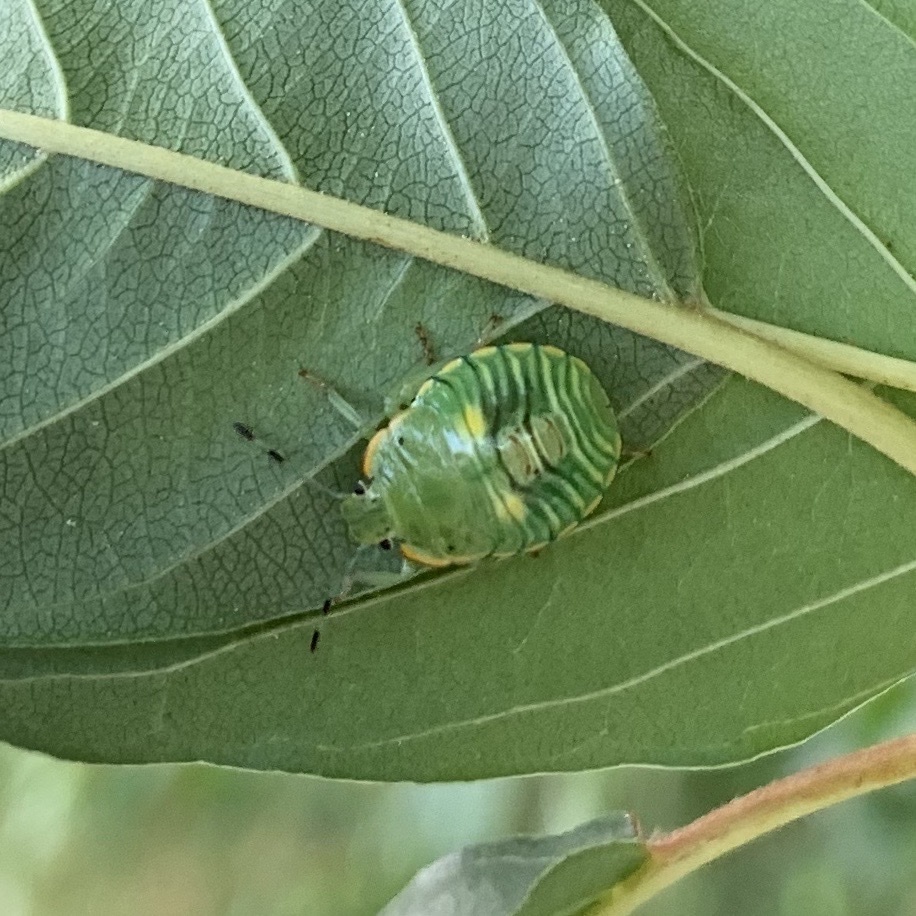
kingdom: Animalia
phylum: Arthropoda
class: Insecta
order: Hemiptera
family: Pentatomidae
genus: Chinavia
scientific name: Chinavia hilaris
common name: Green stink bug
